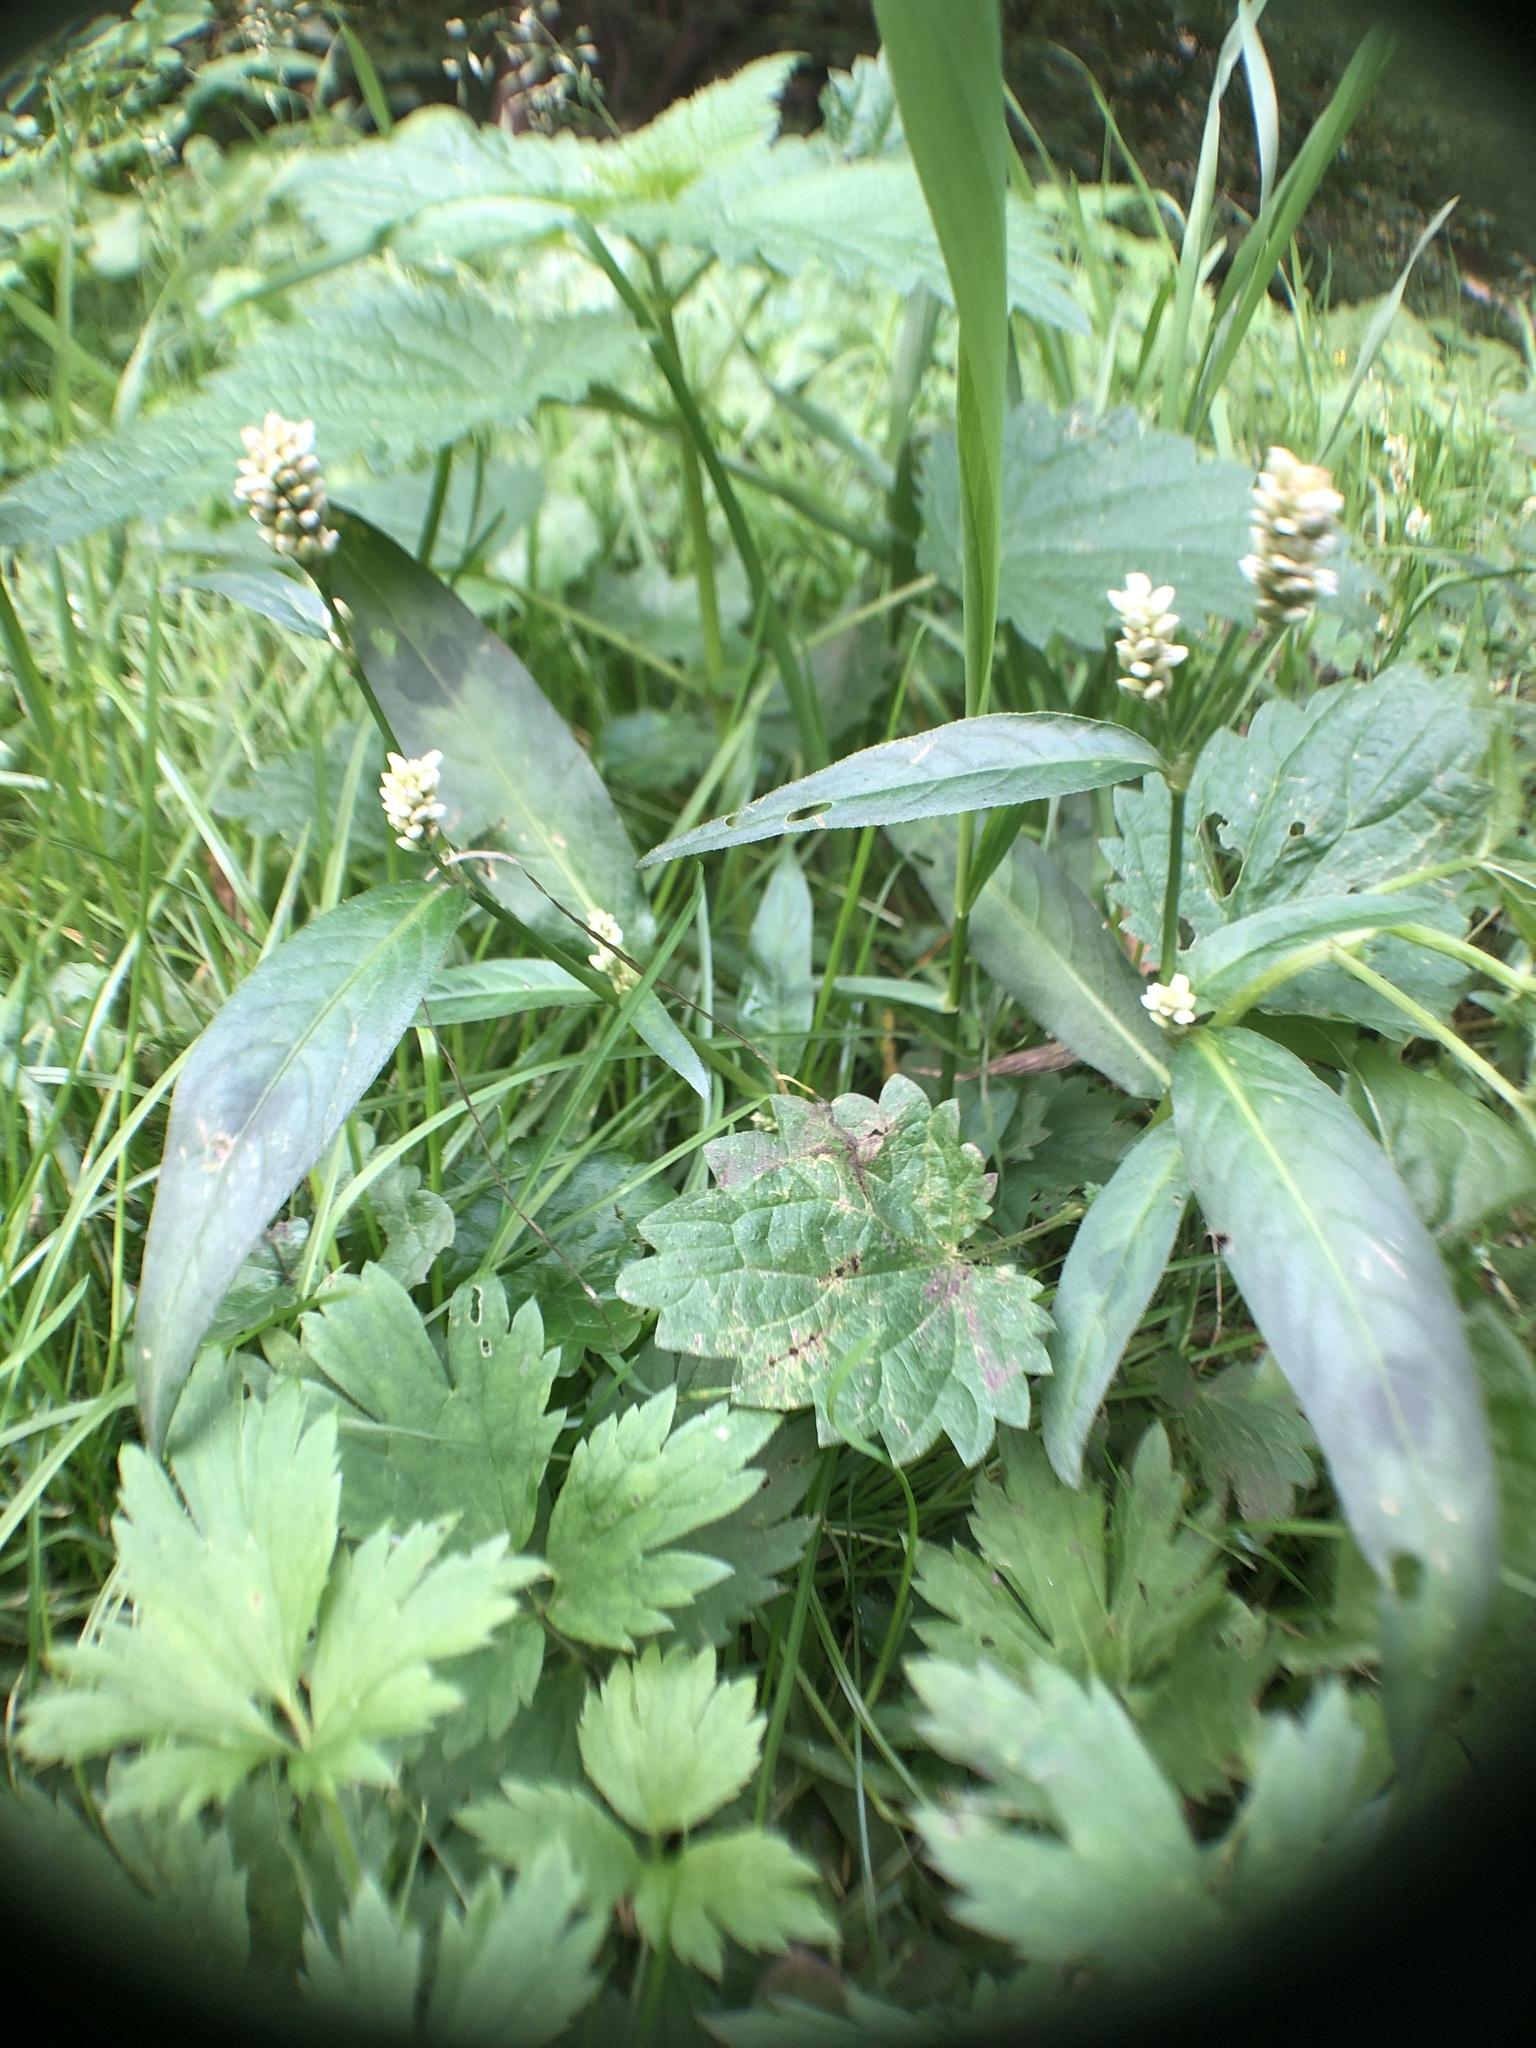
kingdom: Plantae
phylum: Tracheophyta
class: Magnoliopsida
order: Caryophyllales
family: Polygonaceae
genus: Persicaria
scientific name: Persicaria maculosa
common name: Redshank
